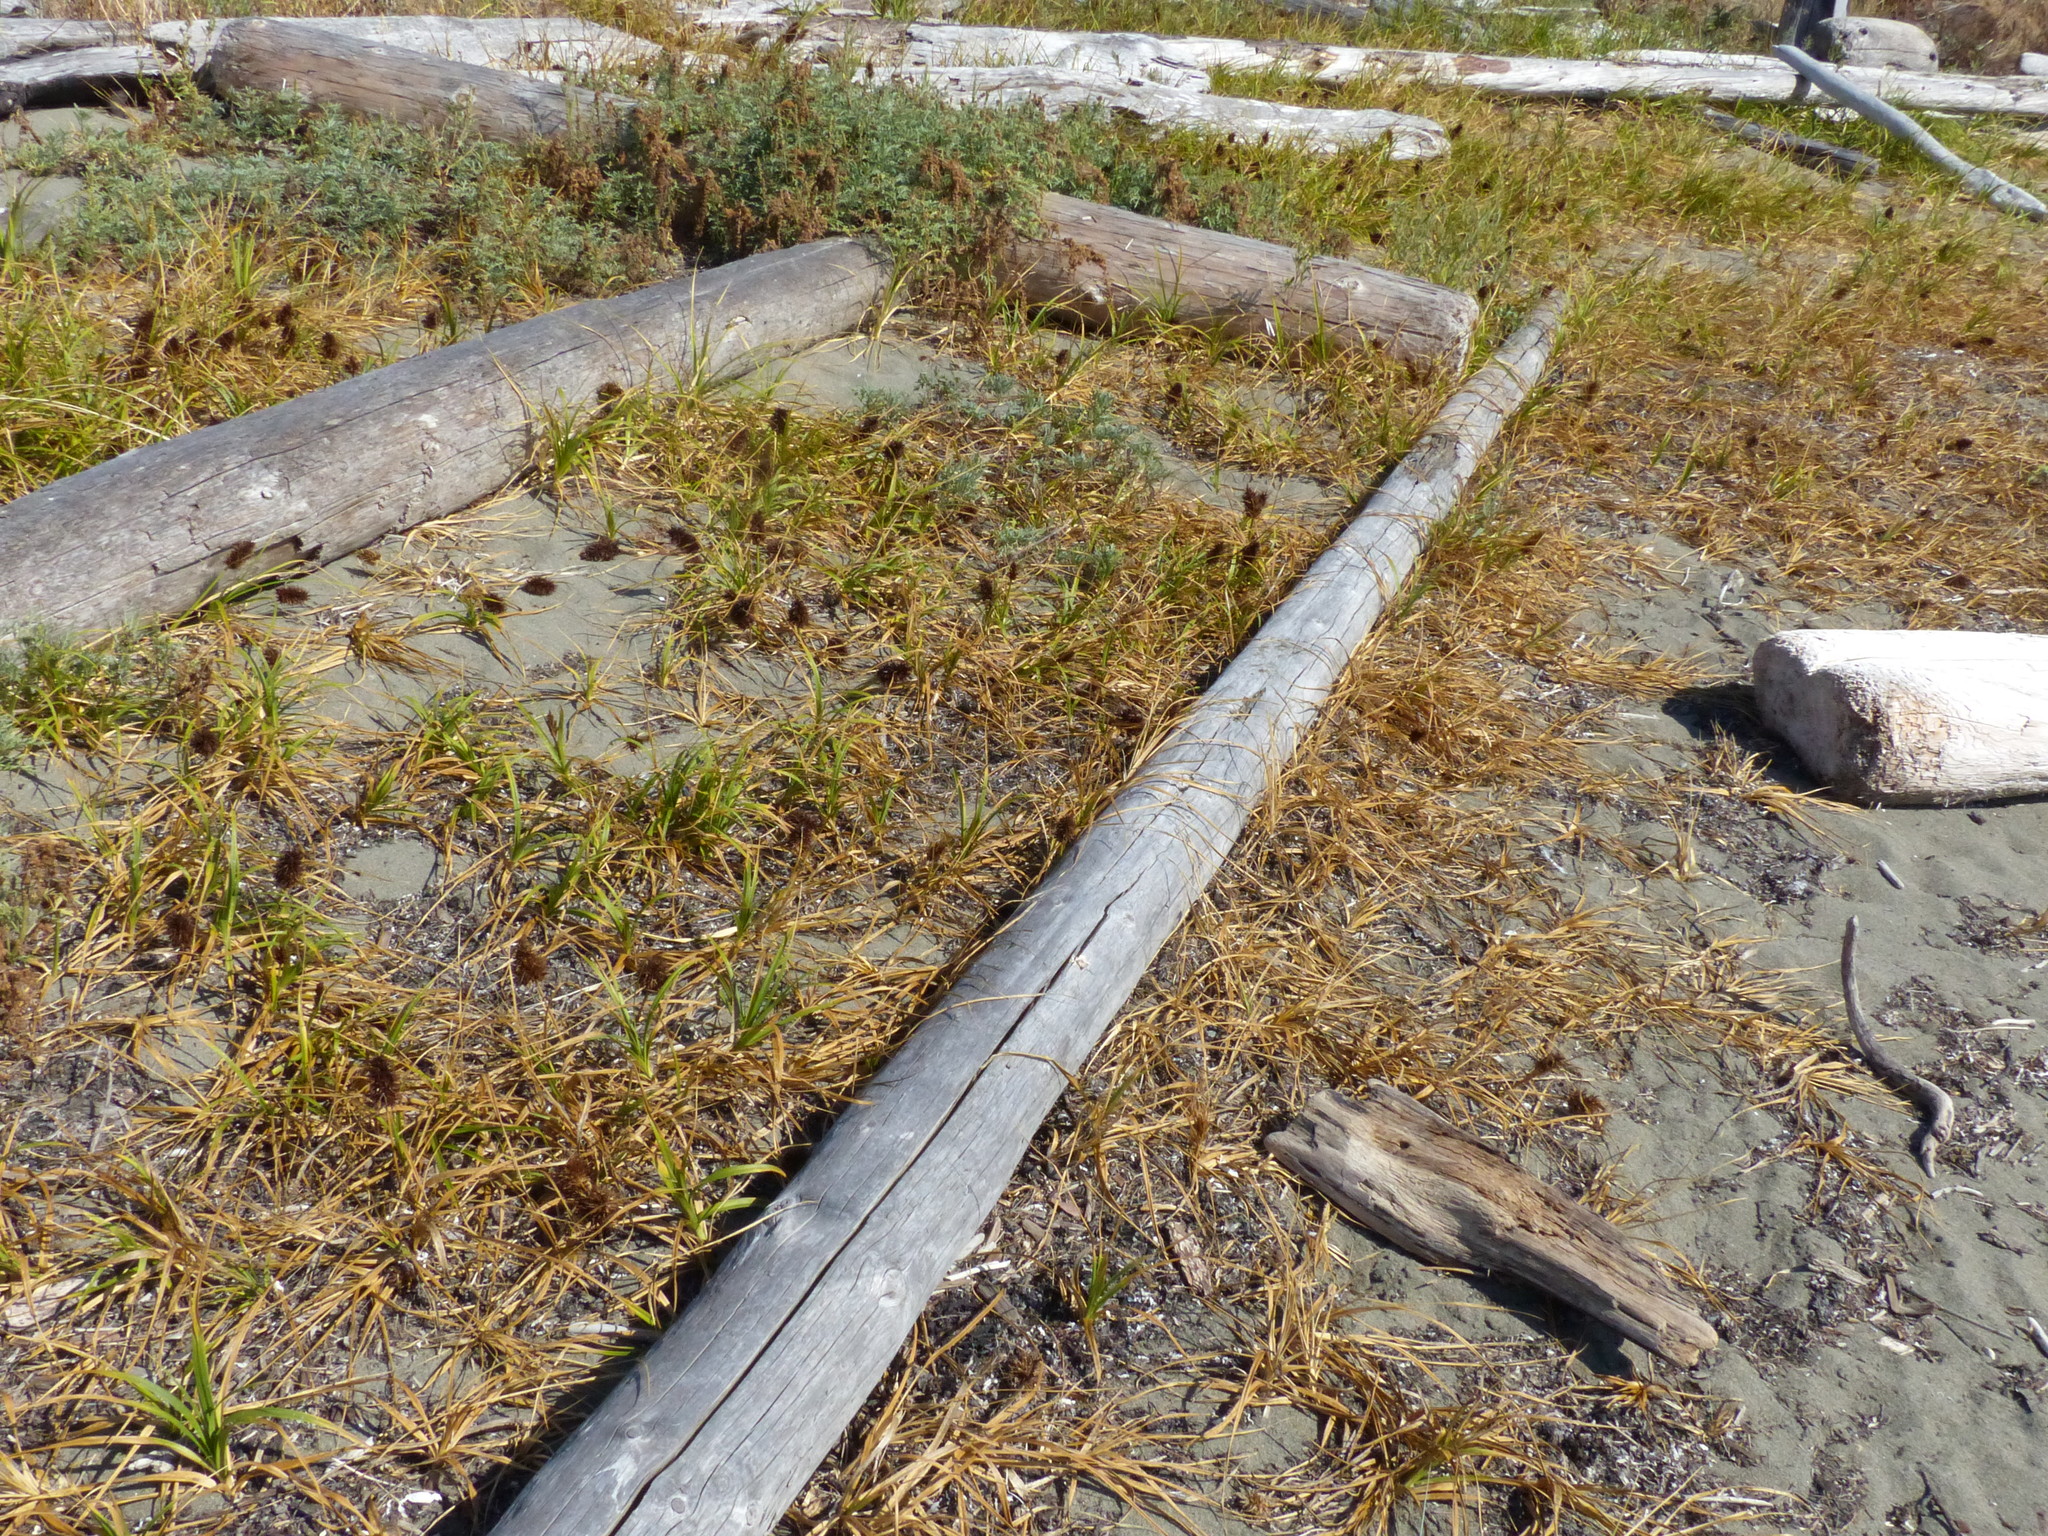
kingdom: Plantae
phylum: Tracheophyta
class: Liliopsida
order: Poales
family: Cyperaceae
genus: Carex
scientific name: Carex macrocephala
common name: Large-head sedge
